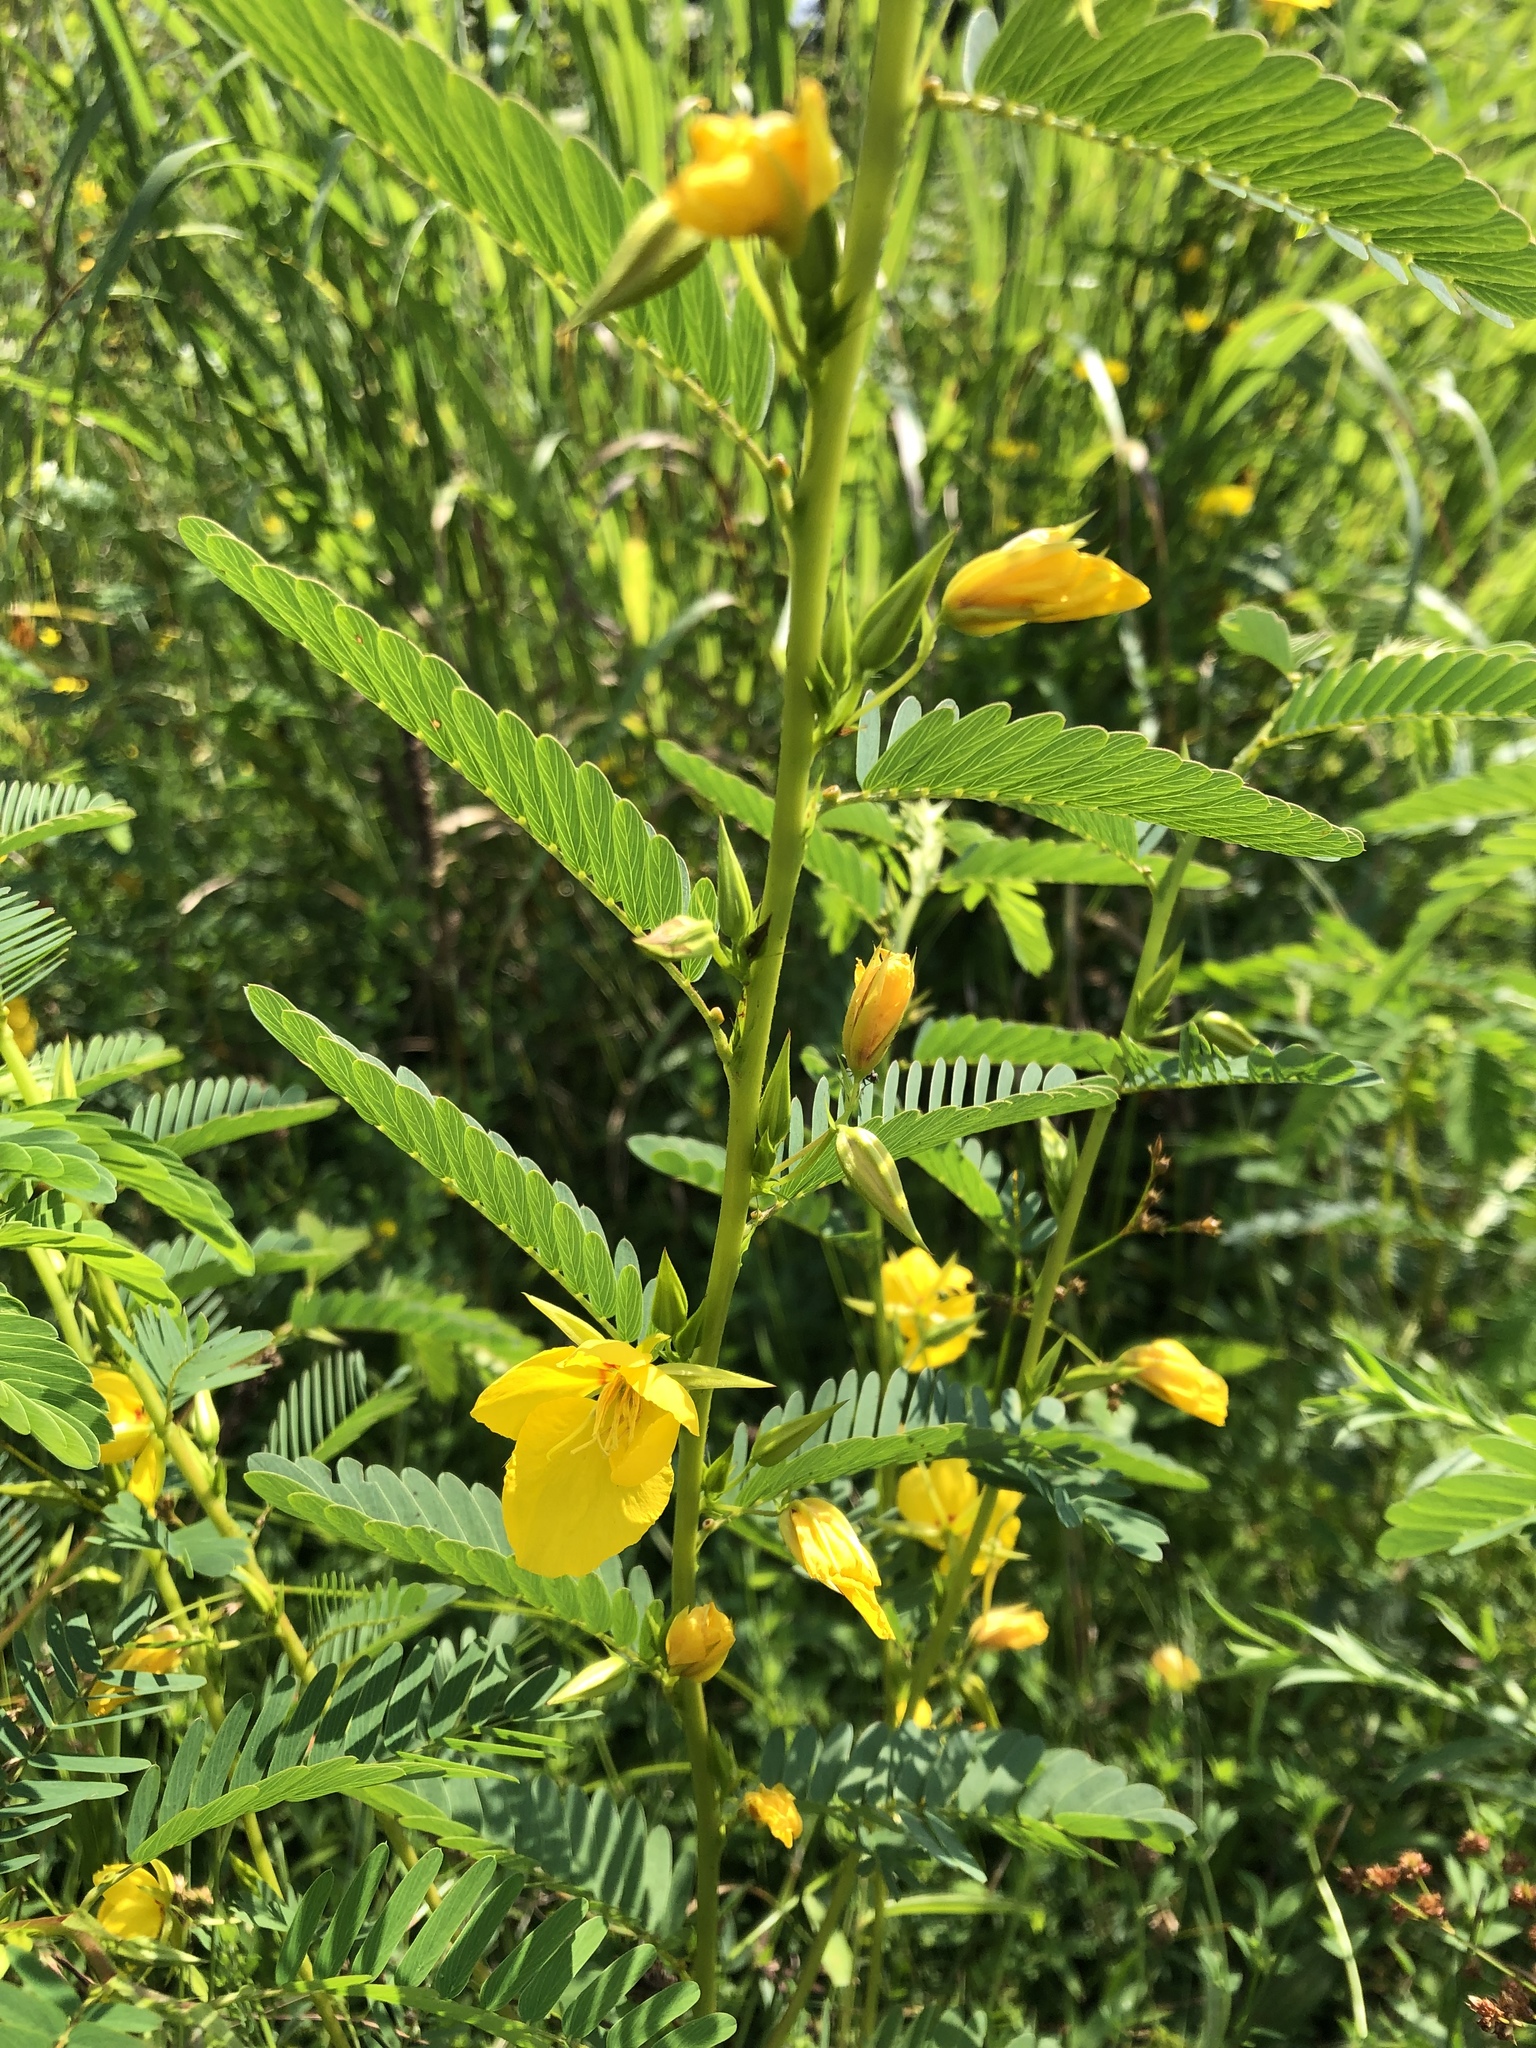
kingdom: Plantae
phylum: Tracheophyta
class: Magnoliopsida
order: Fabales
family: Fabaceae
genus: Chamaecrista
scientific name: Chamaecrista fasciculata
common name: Golden cassia
